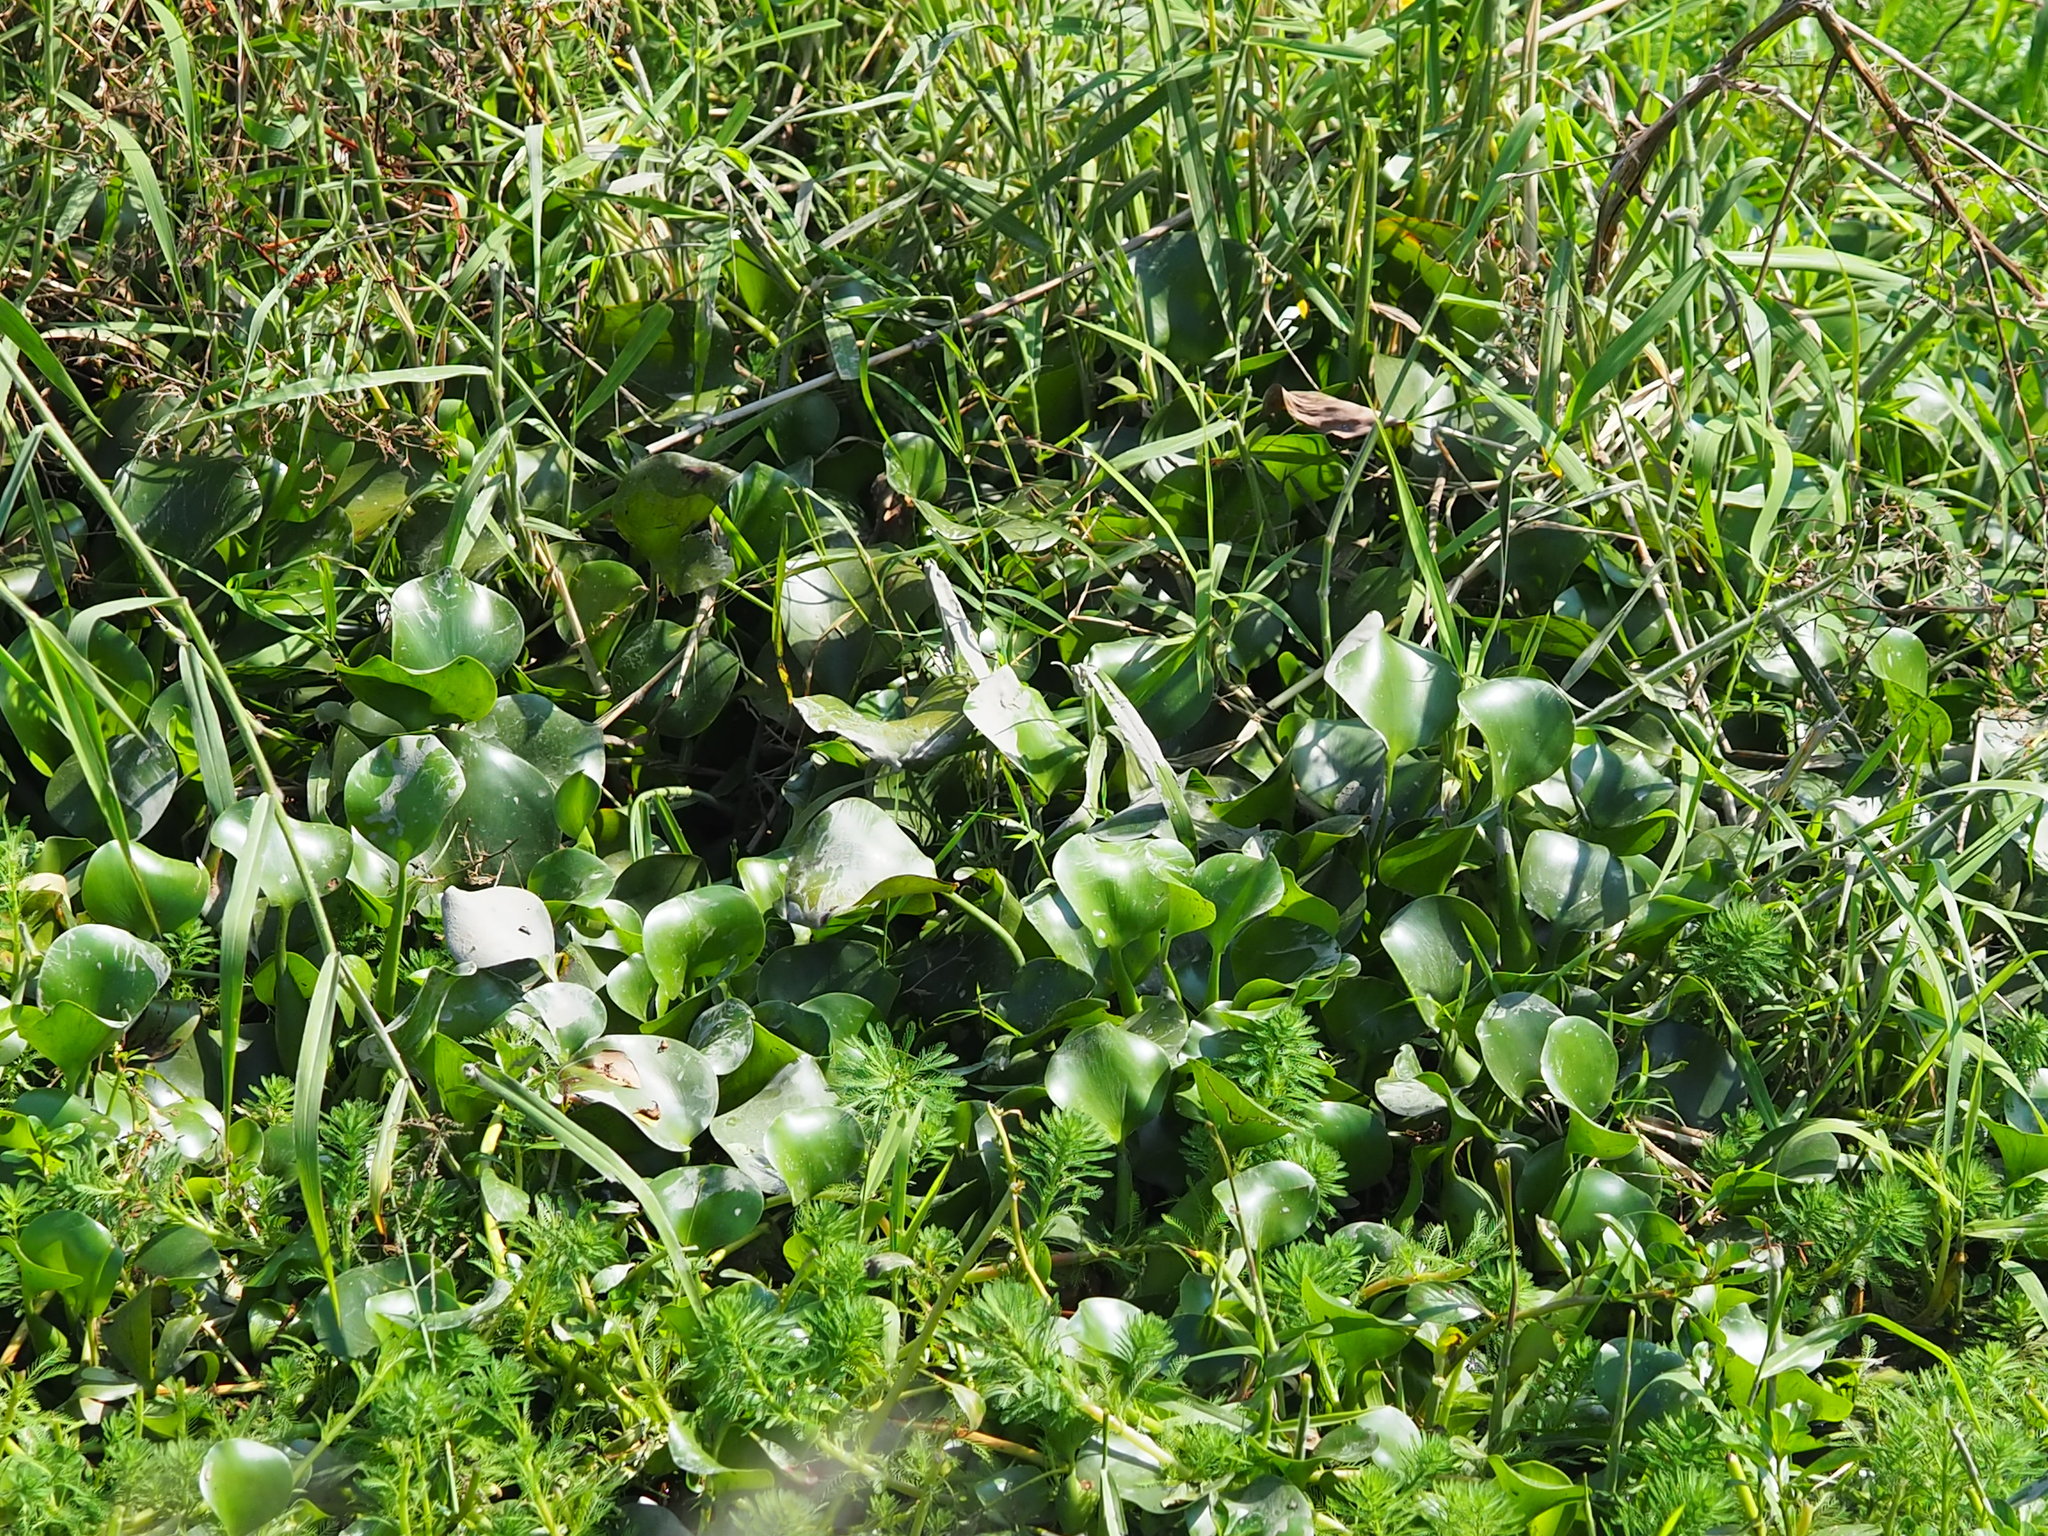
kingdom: Plantae
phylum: Tracheophyta
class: Liliopsida
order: Commelinales
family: Pontederiaceae
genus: Pontederia
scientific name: Pontederia crassipes
